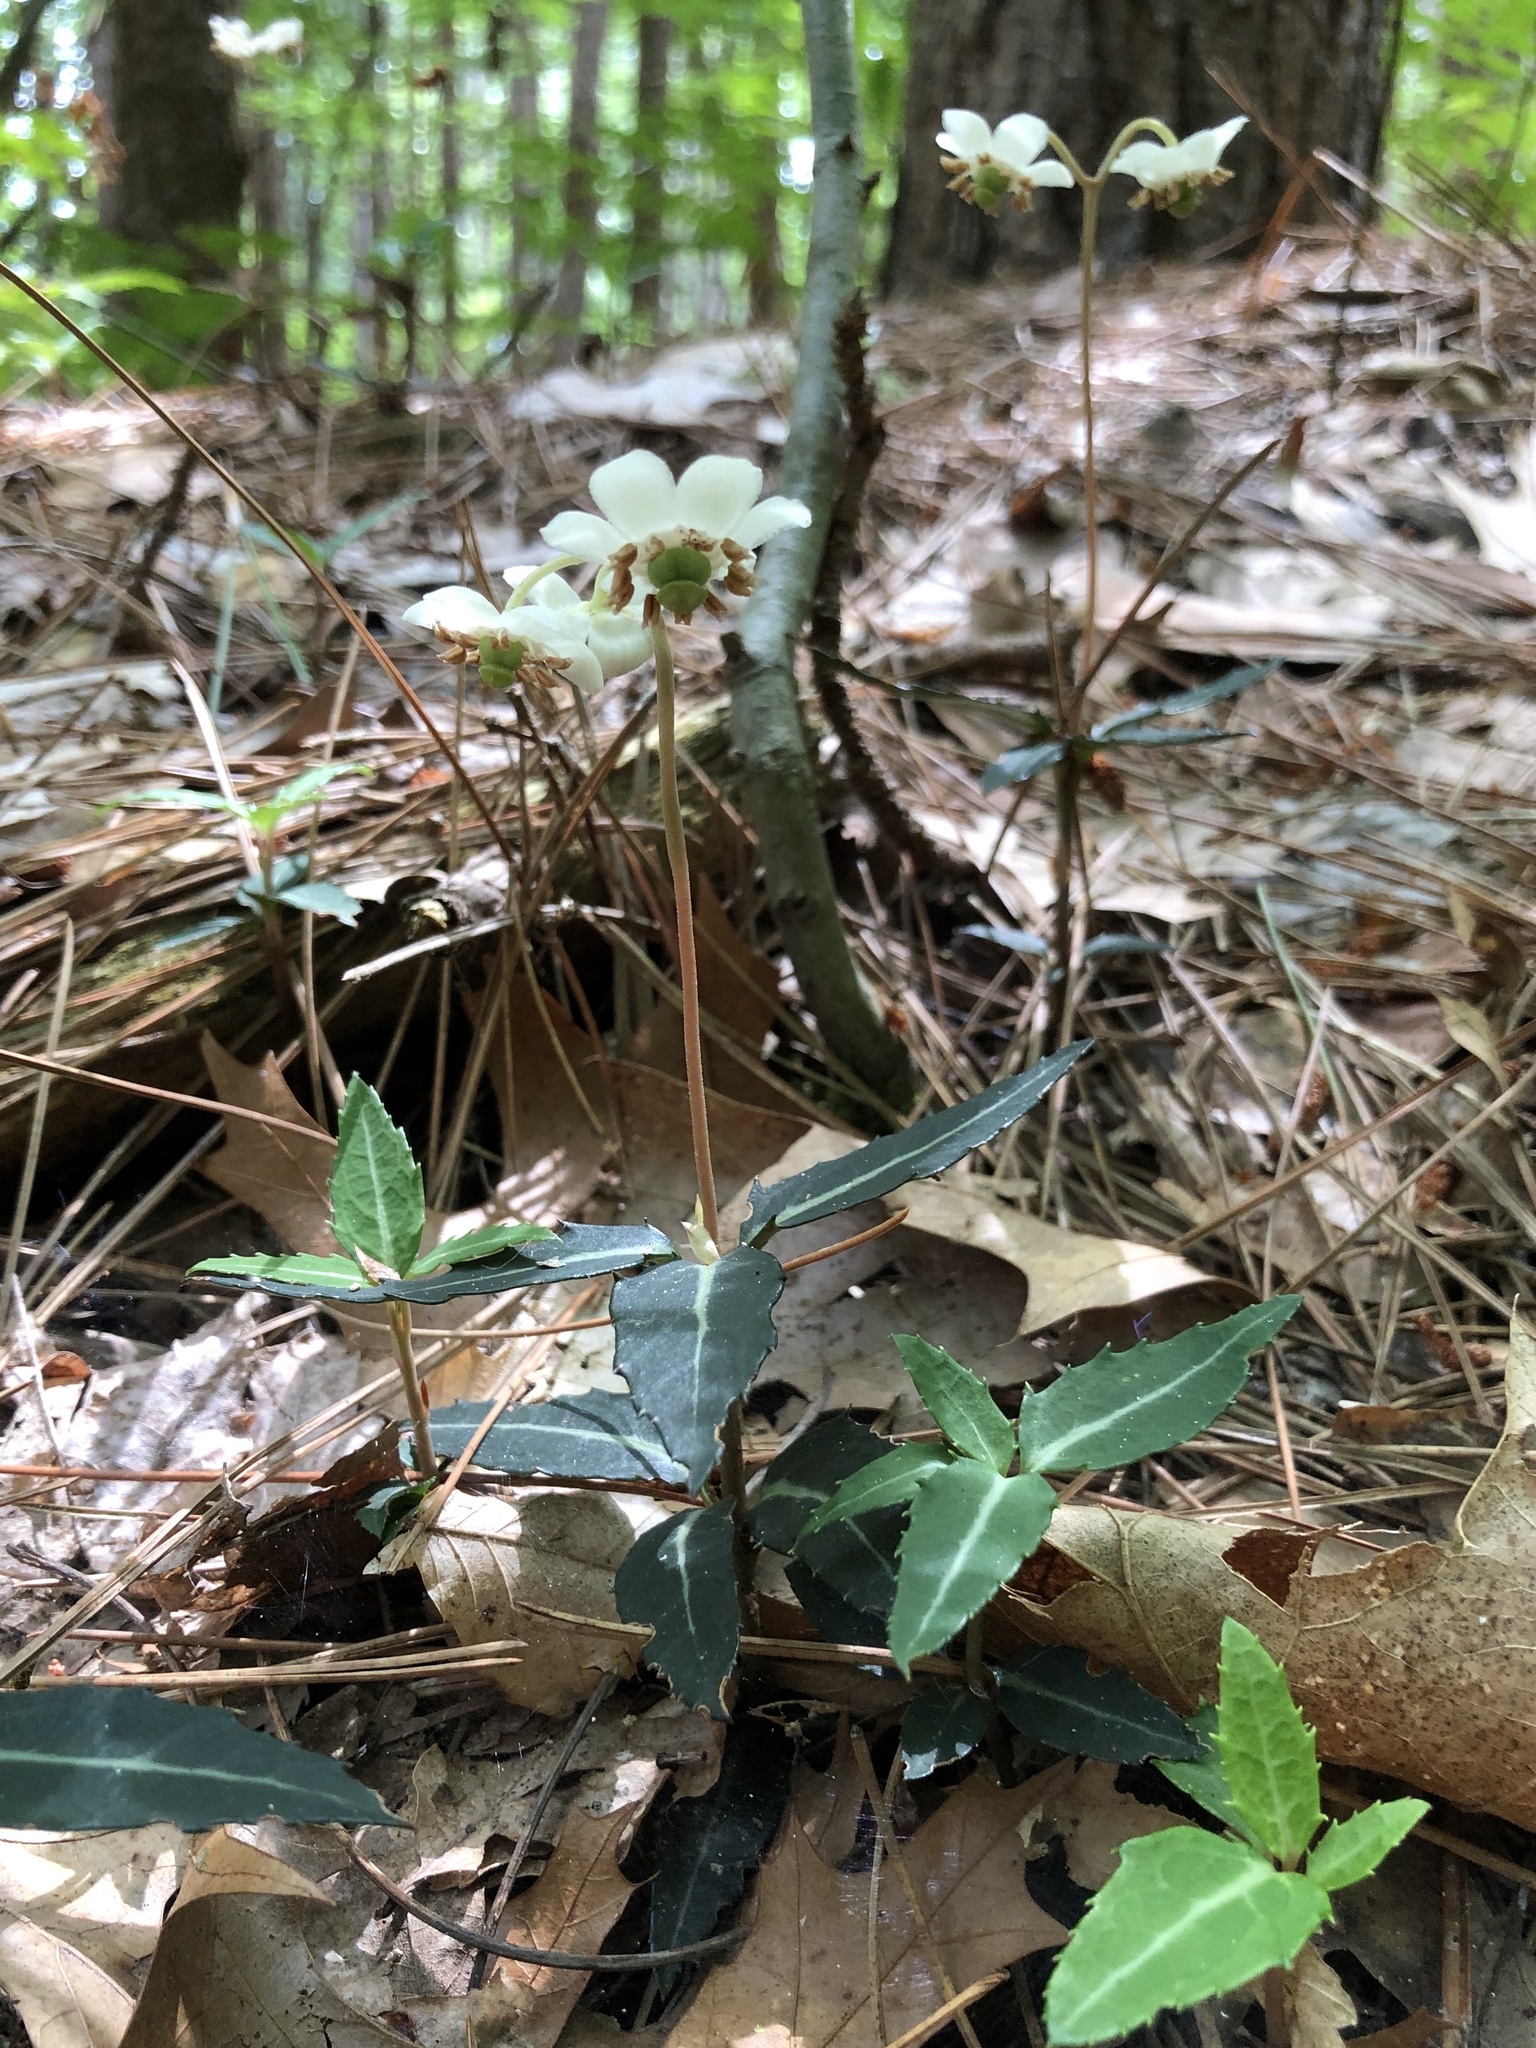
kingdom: Plantae
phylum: Tracheophyta
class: Magnoliopsida
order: Ericales
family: Ericaceae
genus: Chimaphila
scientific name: Chimaphila maculata
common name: Spotted pipsissewa
